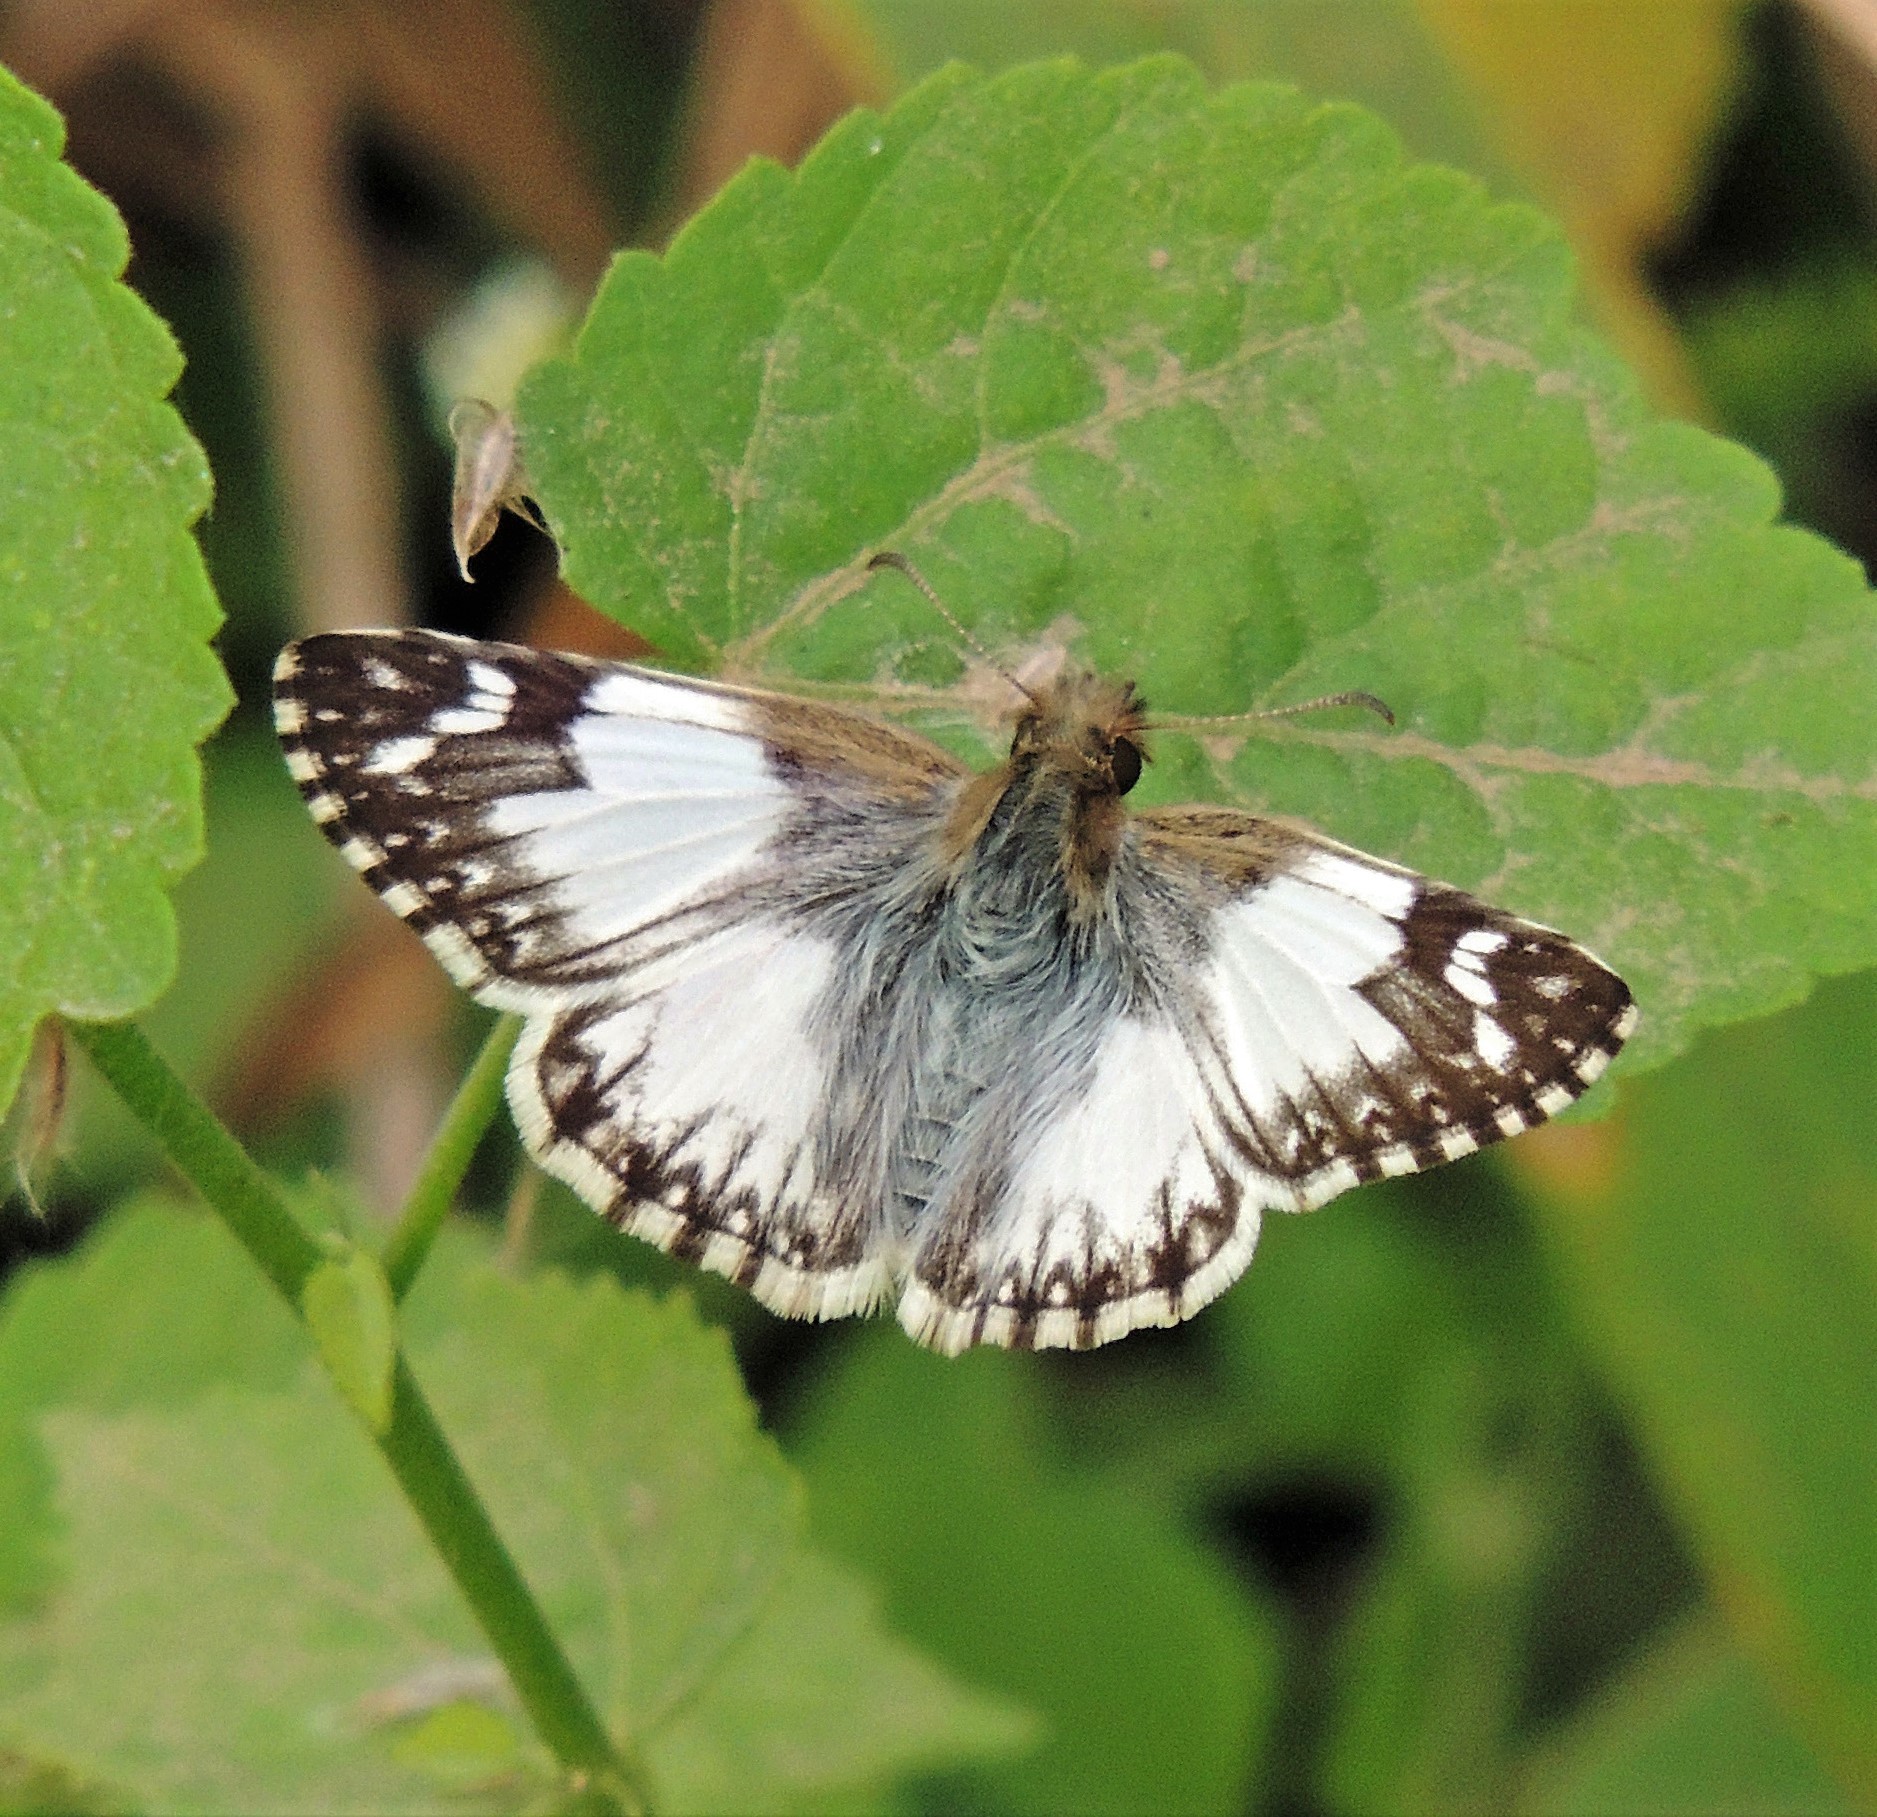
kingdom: Animalia
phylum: Arthropoda
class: Insecta
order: Lepidoptera
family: Hesperiidae
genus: Heliopetes
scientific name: Heliopetes omrina
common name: Stained white-skipper
